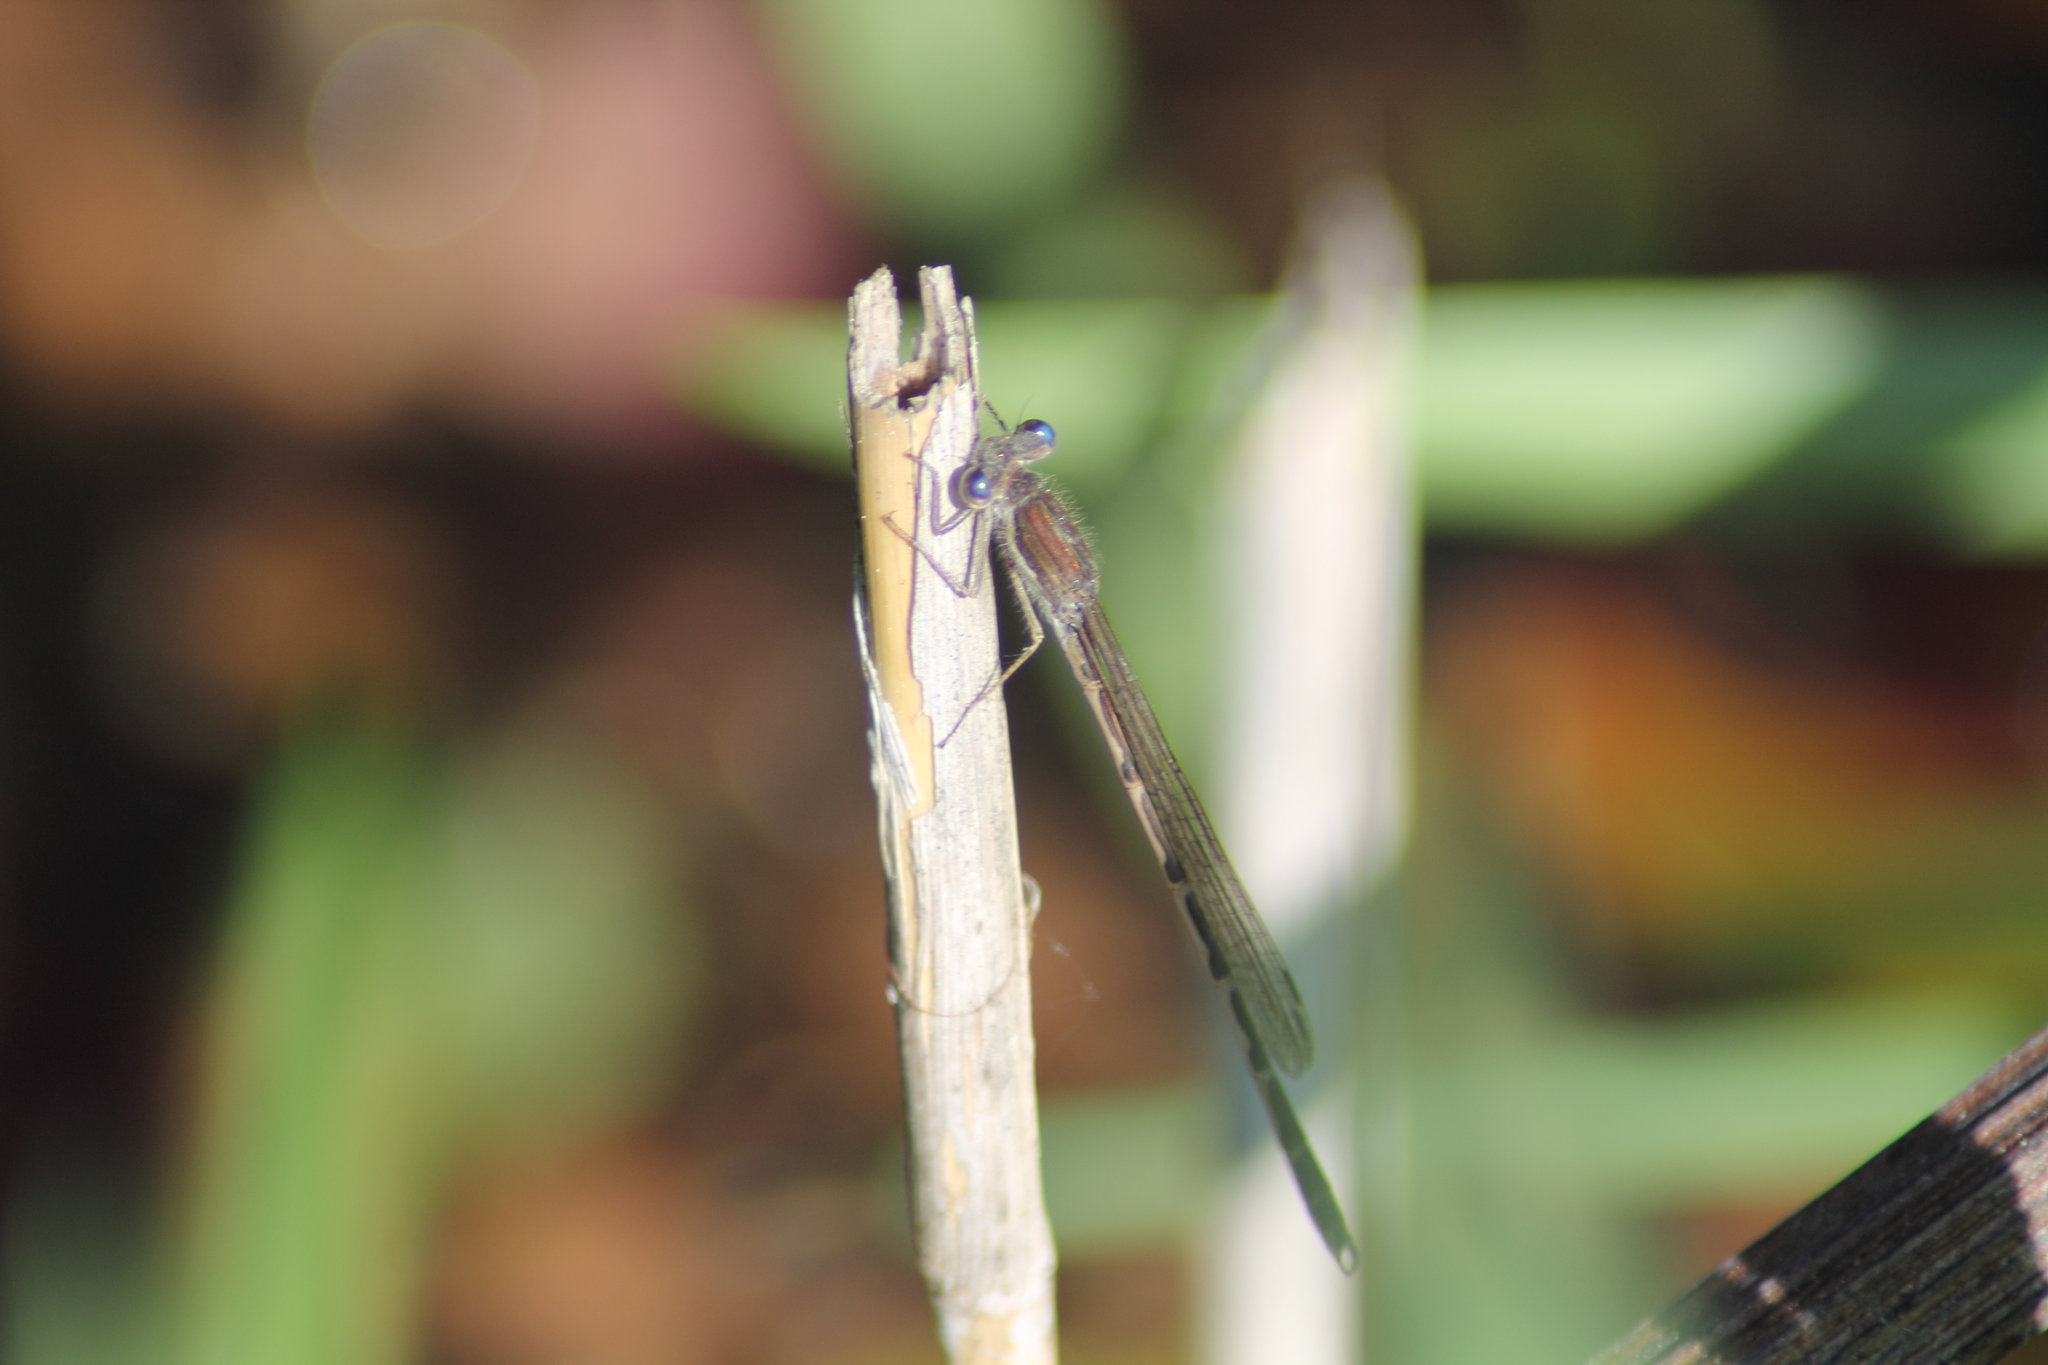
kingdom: Animalia
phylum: Arthropoda
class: Insecta
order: Odonata
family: Lestidae
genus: Sympecma
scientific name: Sympecma fusca
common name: Common winter damsel
